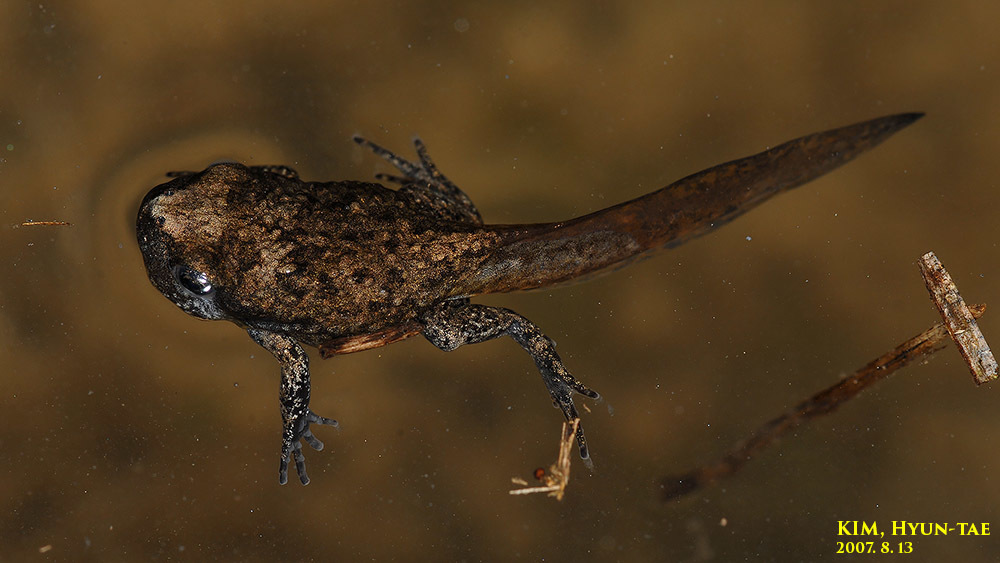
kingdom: Animalia
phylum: Chordata
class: Amphibia
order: Anura
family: Microhylidae
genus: Kaloula
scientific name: Kaloula borealis
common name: Boreal digging frog
